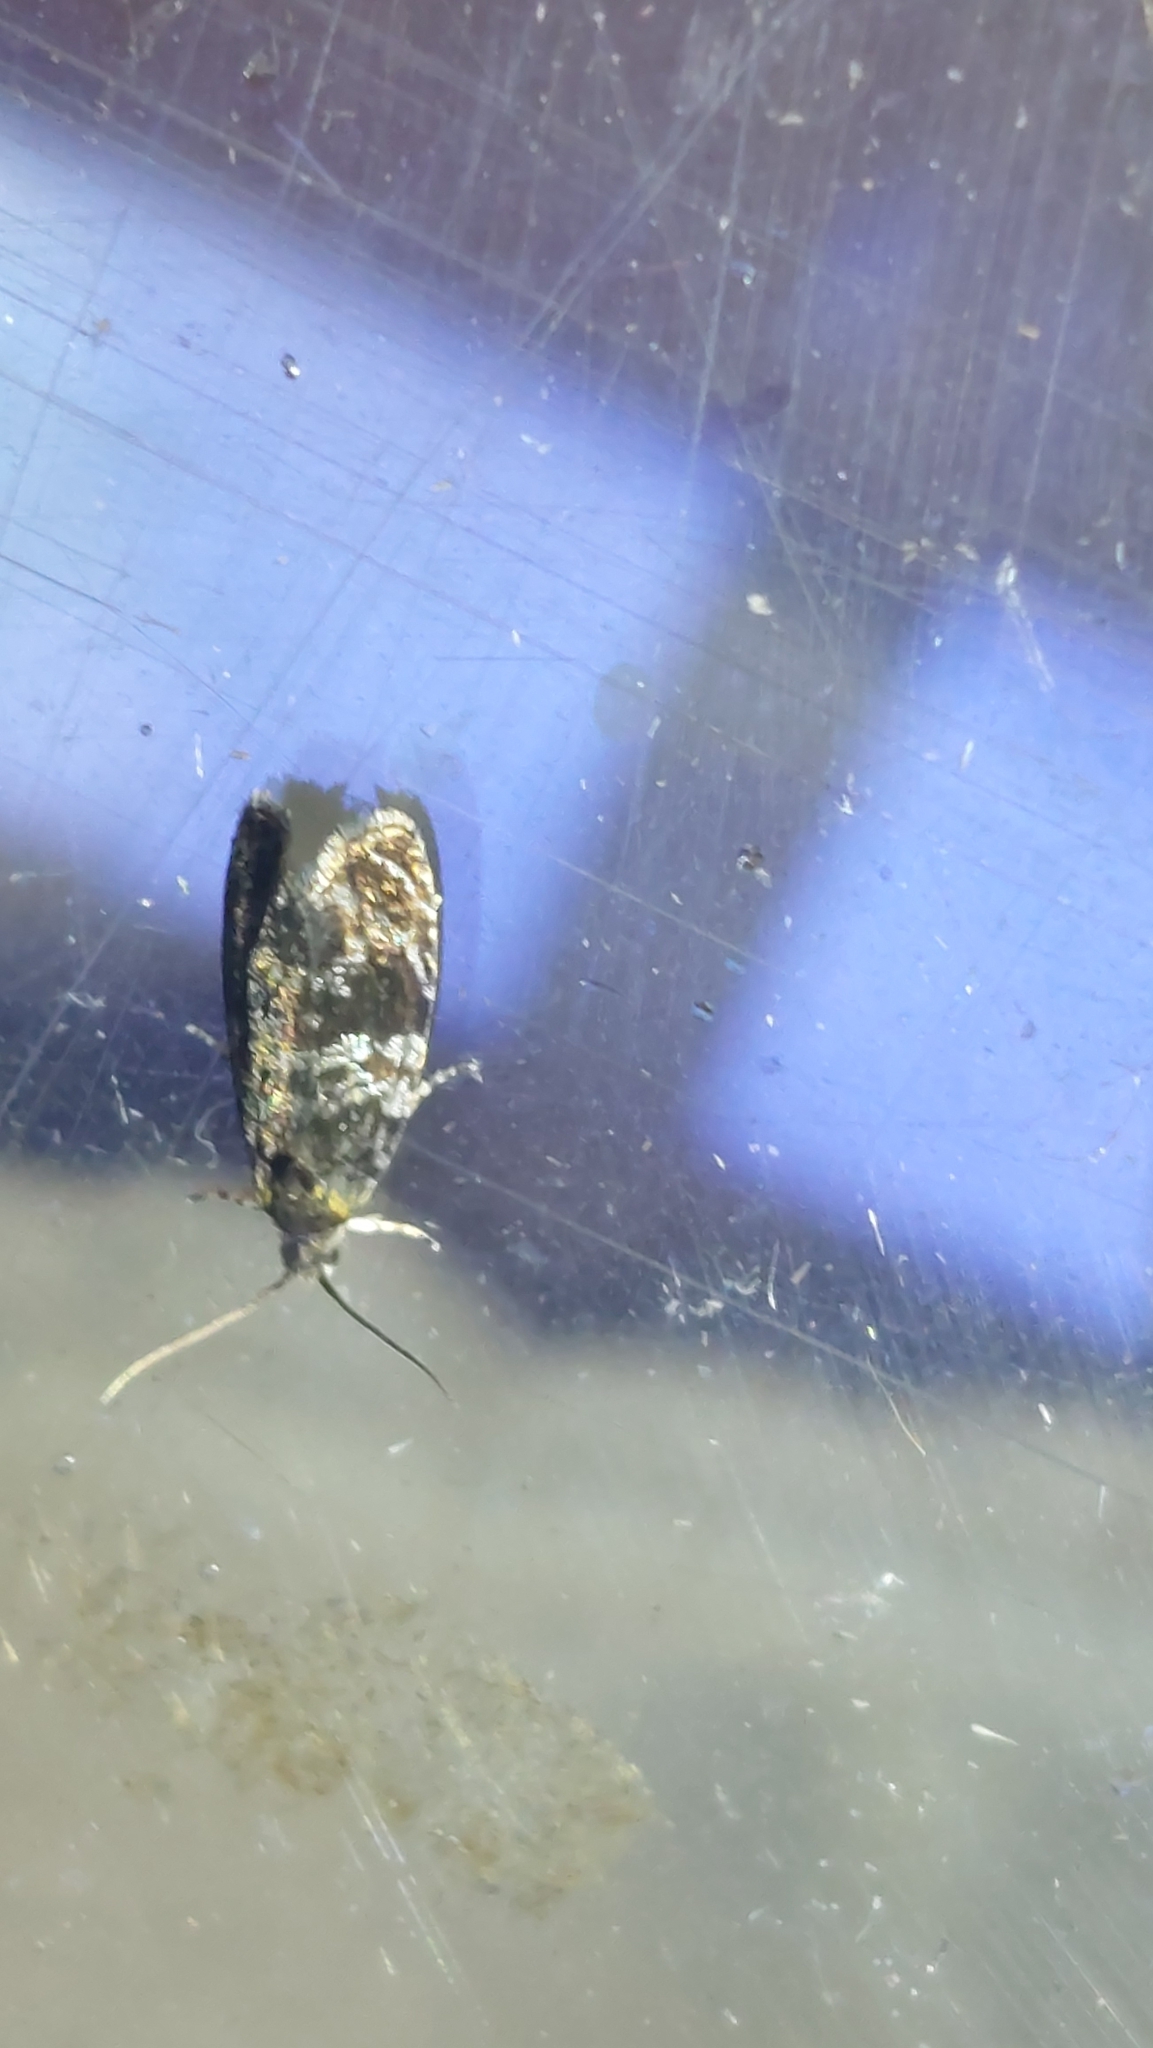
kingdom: Animalia
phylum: Arthropoda
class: Insecta
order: Lepidoptera
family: Tortricidae
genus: Syricoris
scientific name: Syricoris lacunana
